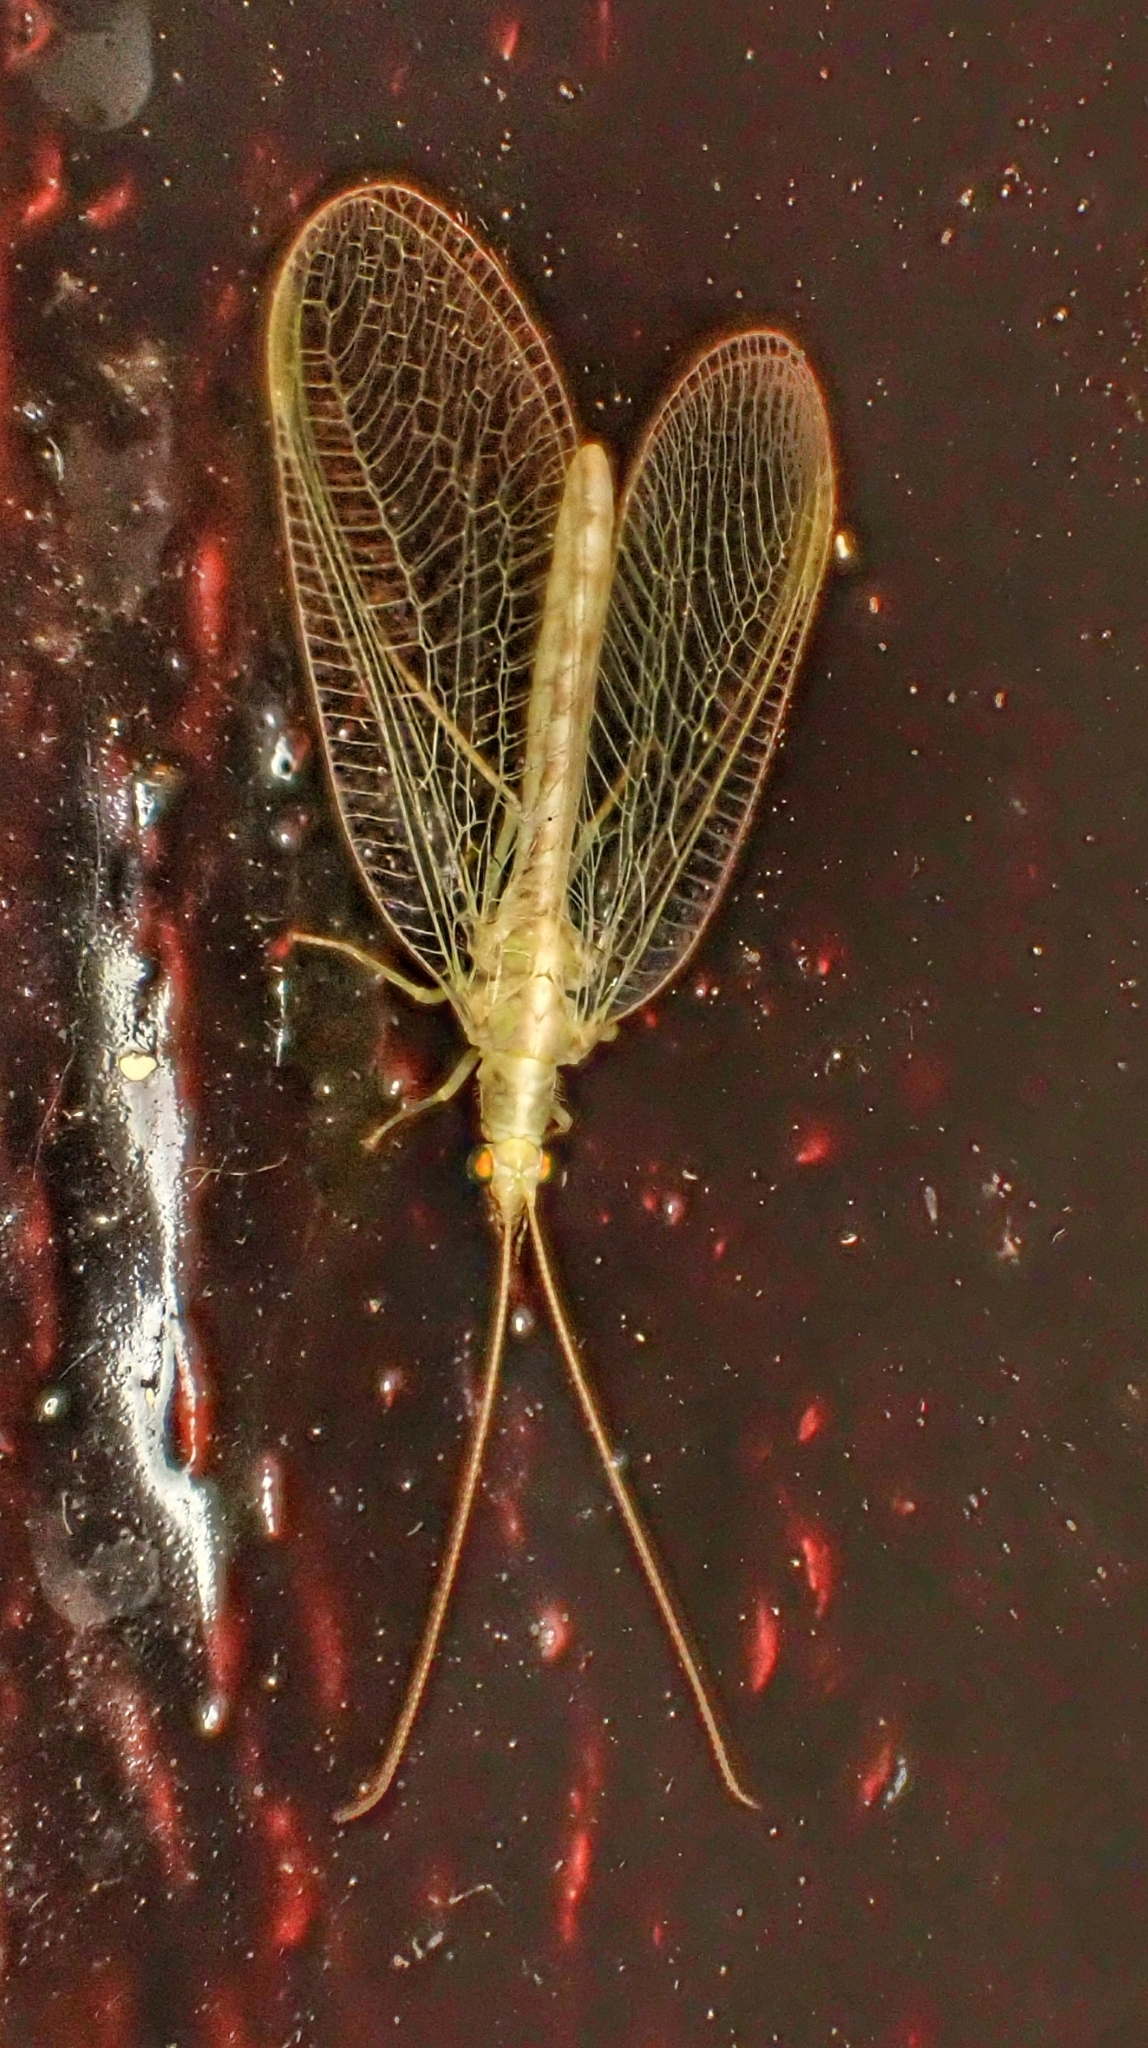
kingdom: Animalia
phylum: Arthropoda
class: Insecta
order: Neuroptera
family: Chrysopidae
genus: Chrysoperla
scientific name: Chrysoperla
